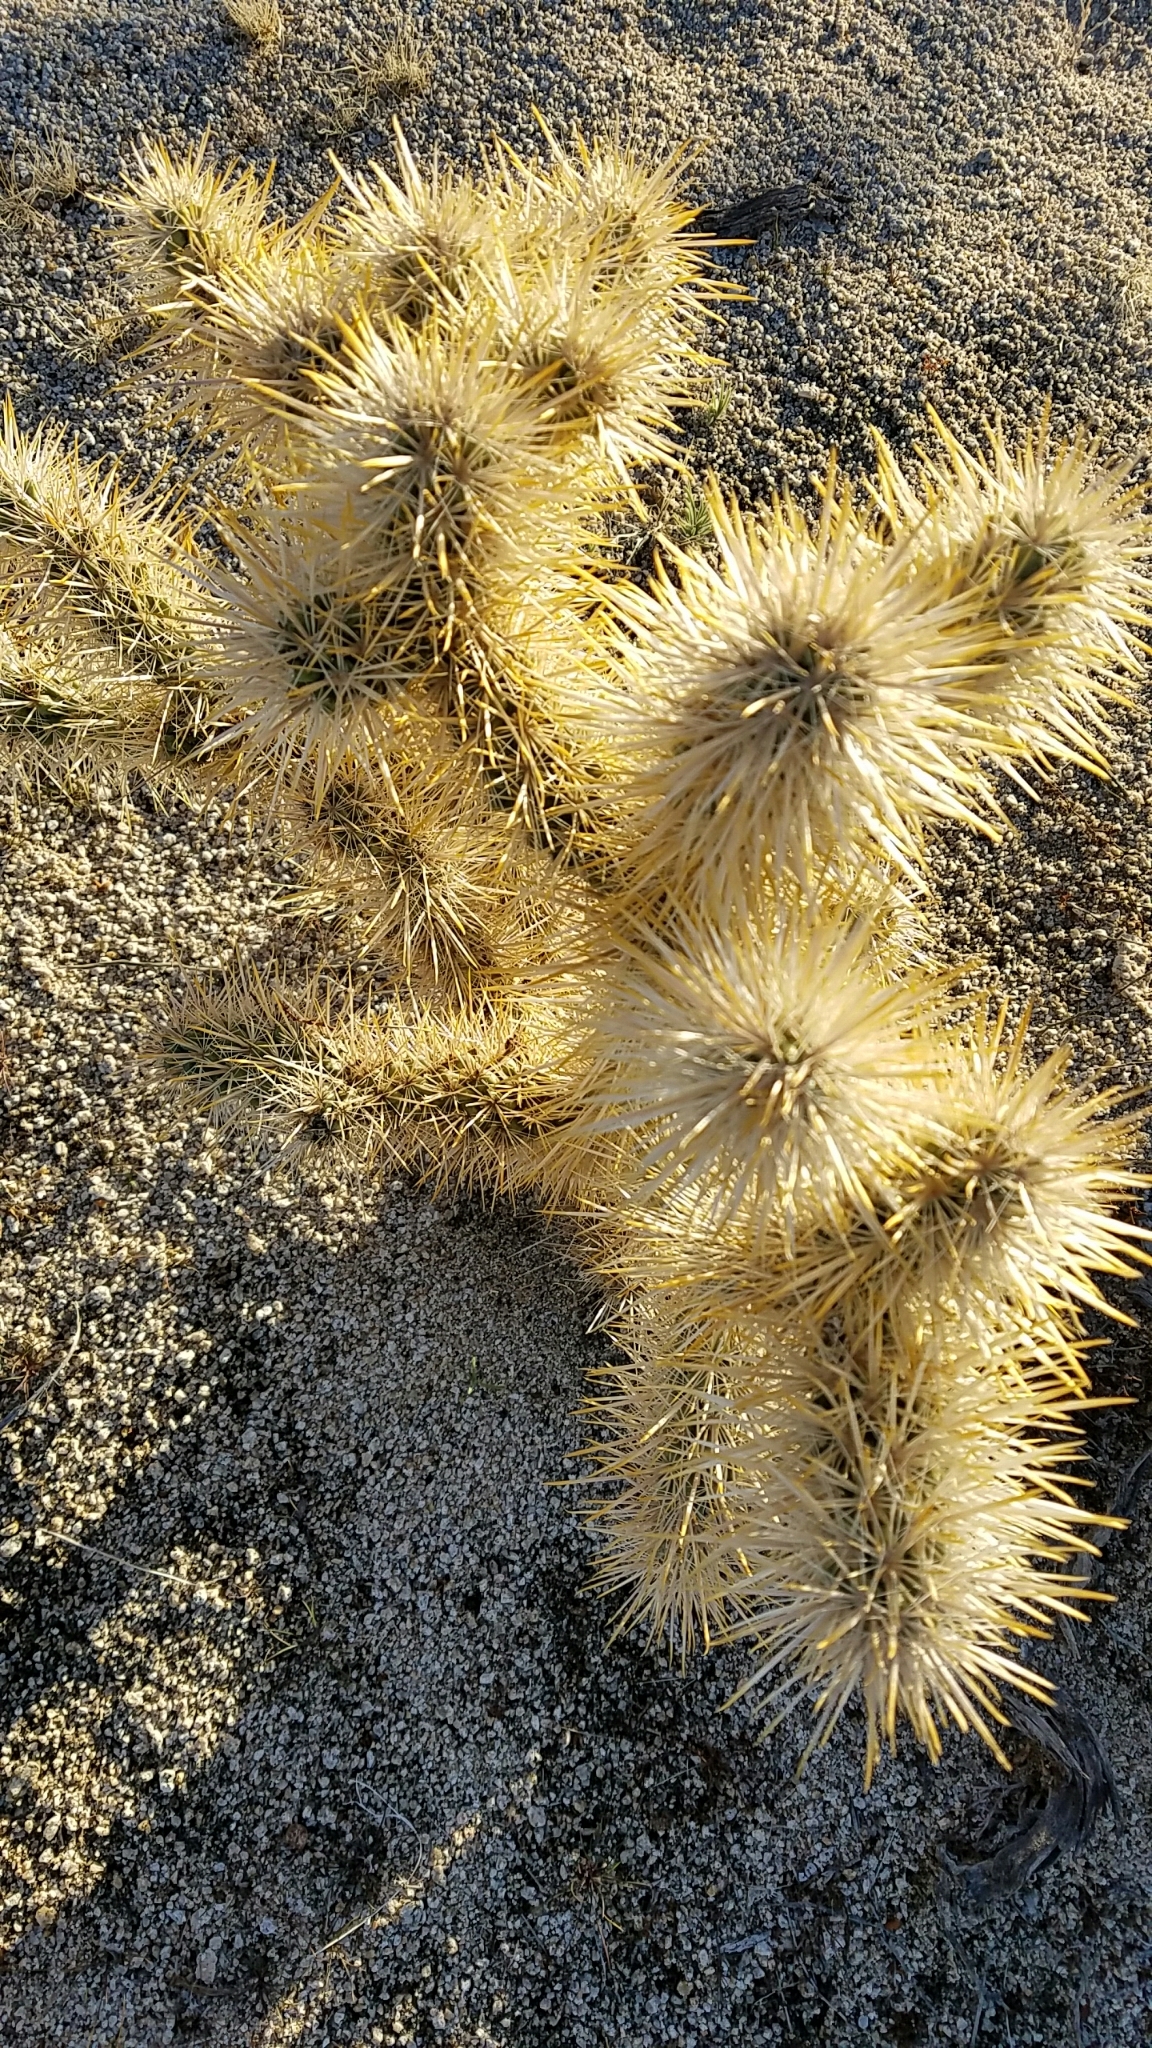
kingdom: Plantae
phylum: Tracheophyta
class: Magnoliopsida
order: Caryophyllales
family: Cactaceae
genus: Cylindropuntia
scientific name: Cylindropuntia echinocarpa
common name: Ground cholla
